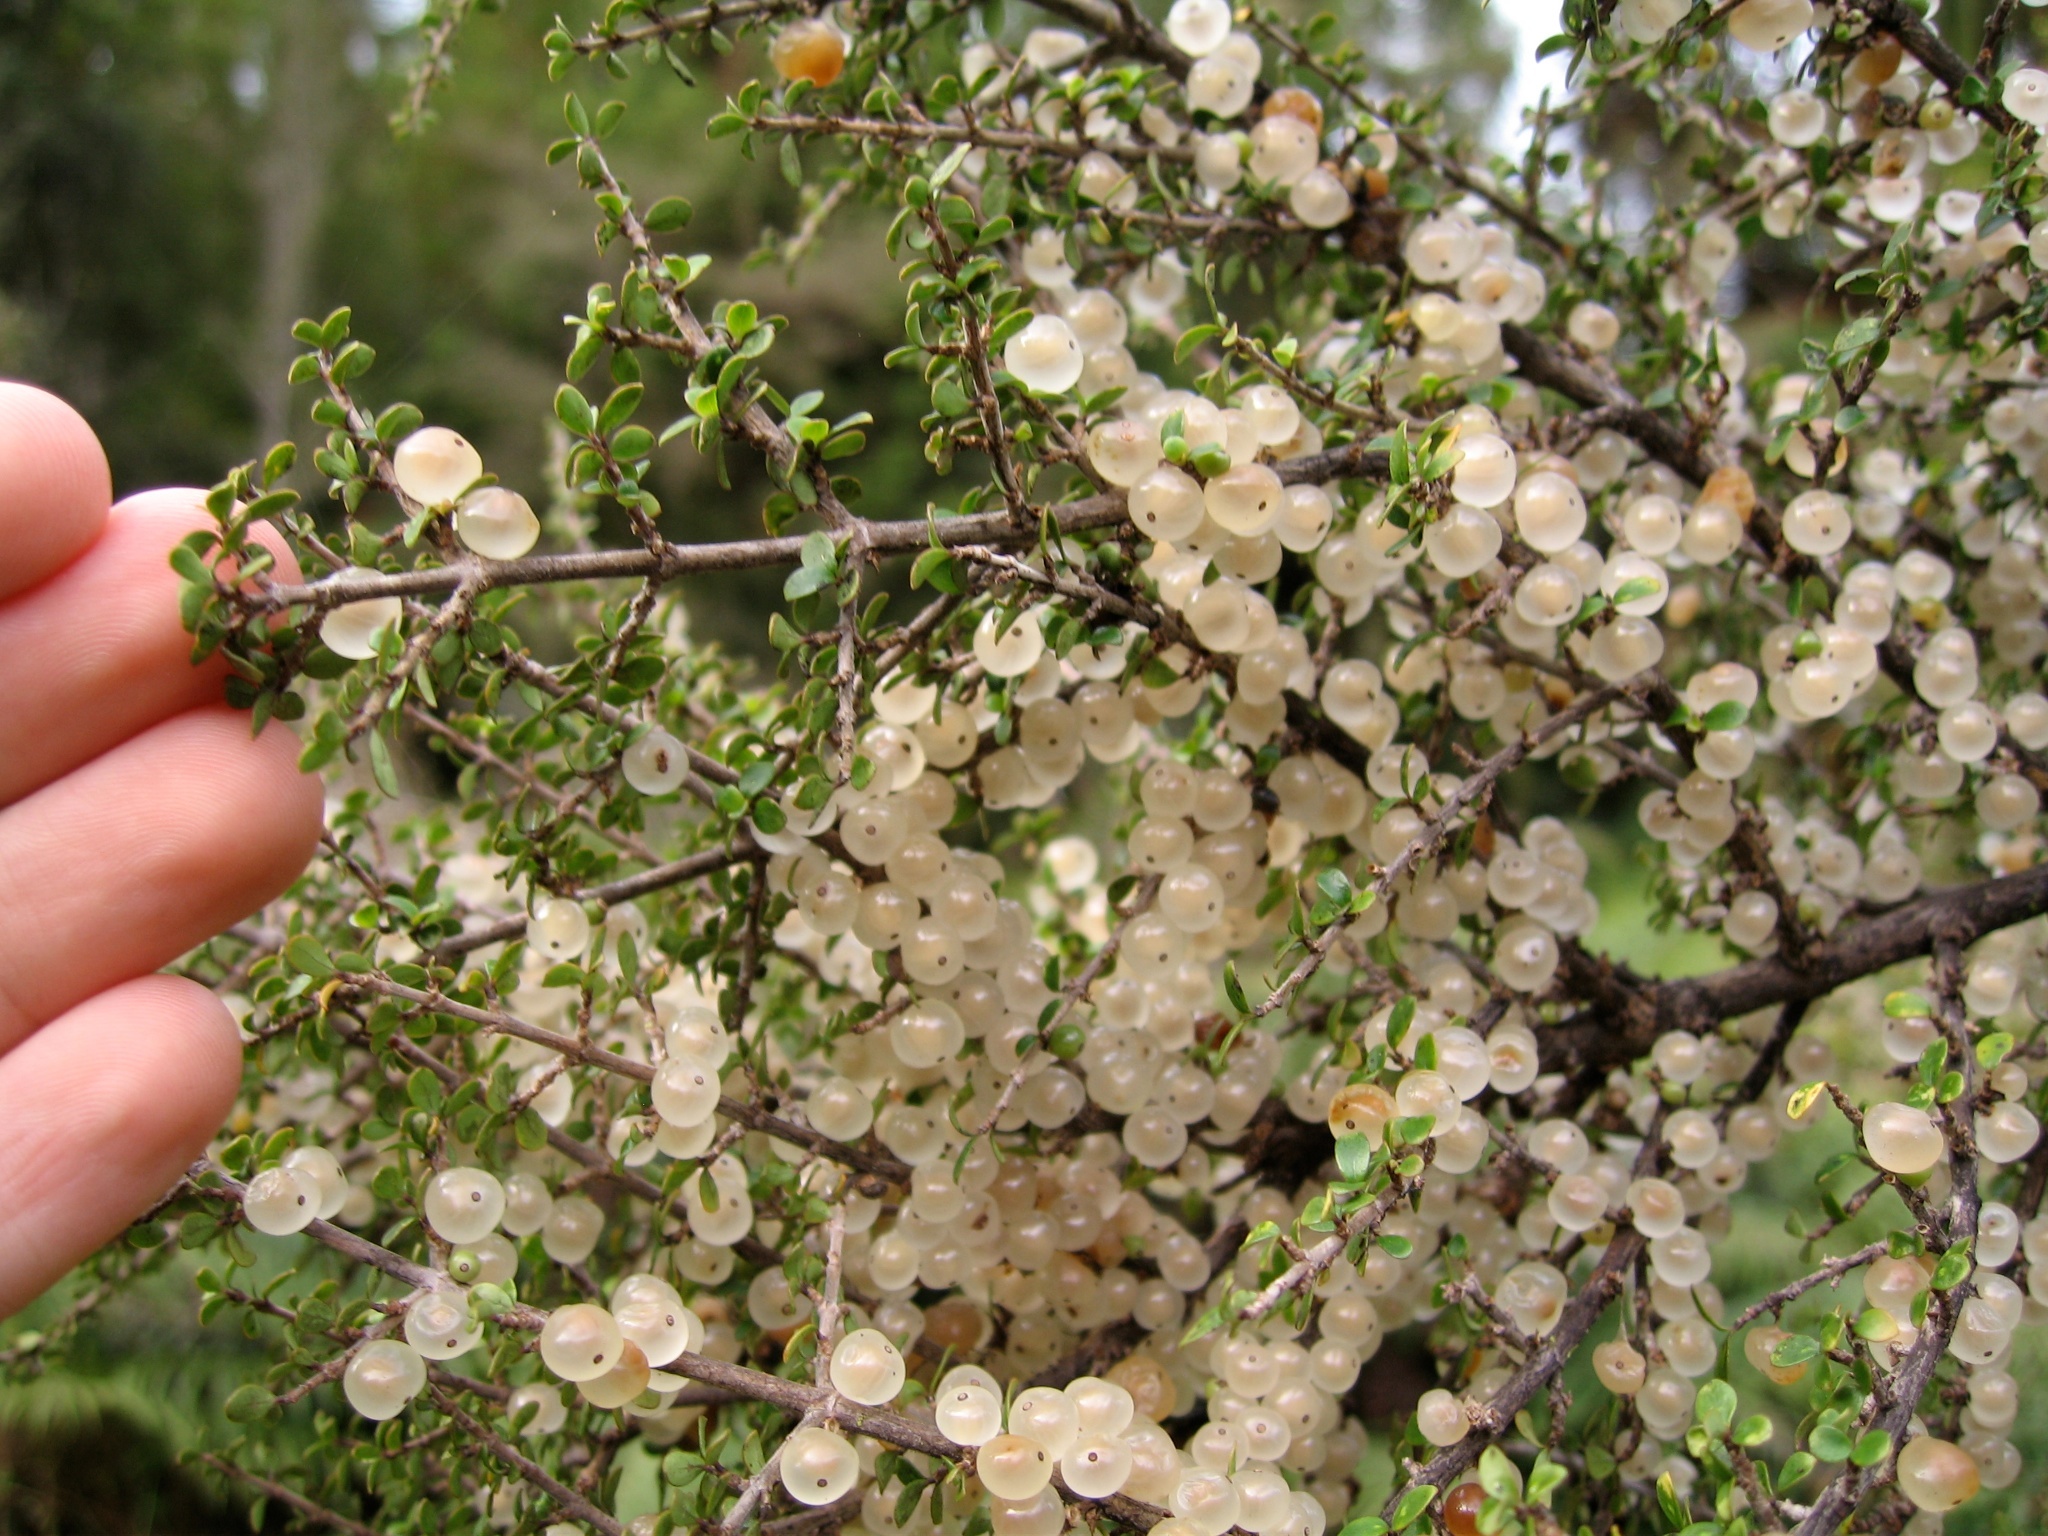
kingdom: Plantae
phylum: Tracheophyta
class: Magnoliopsida
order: Gentianales
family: Rubiaceae
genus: Coprosma
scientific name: Coprosma dumosa
